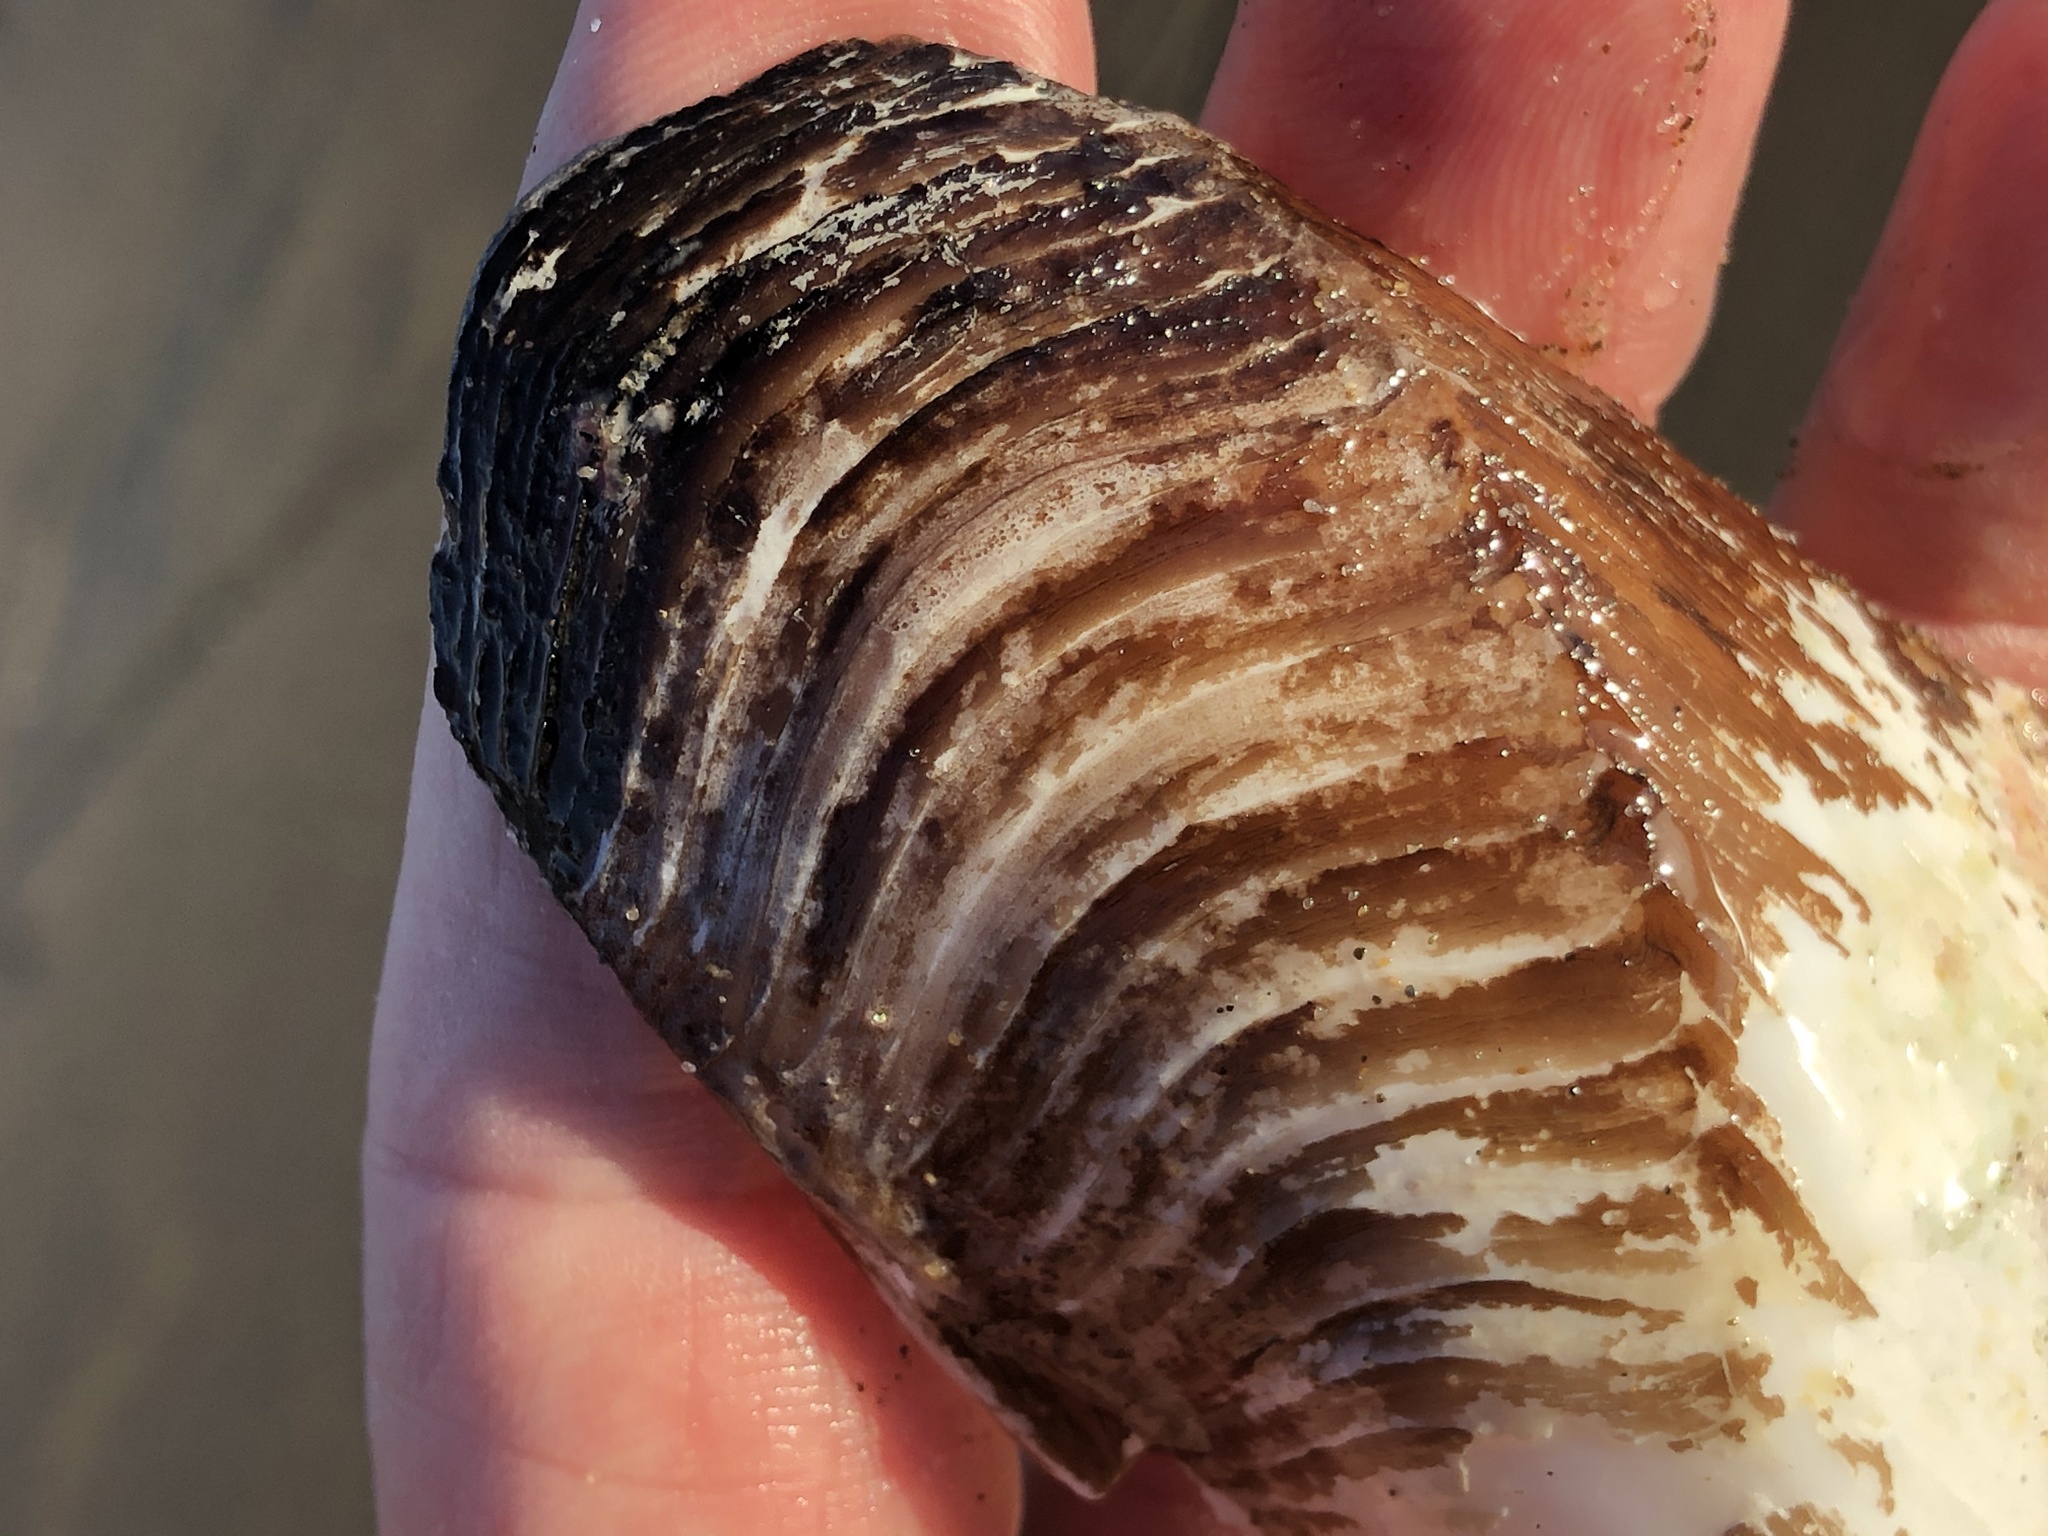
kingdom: Animalia
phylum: Mollusca
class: Bivalvia
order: Myida
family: Pholadidae
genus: Parapholas
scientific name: Parapholas californica
